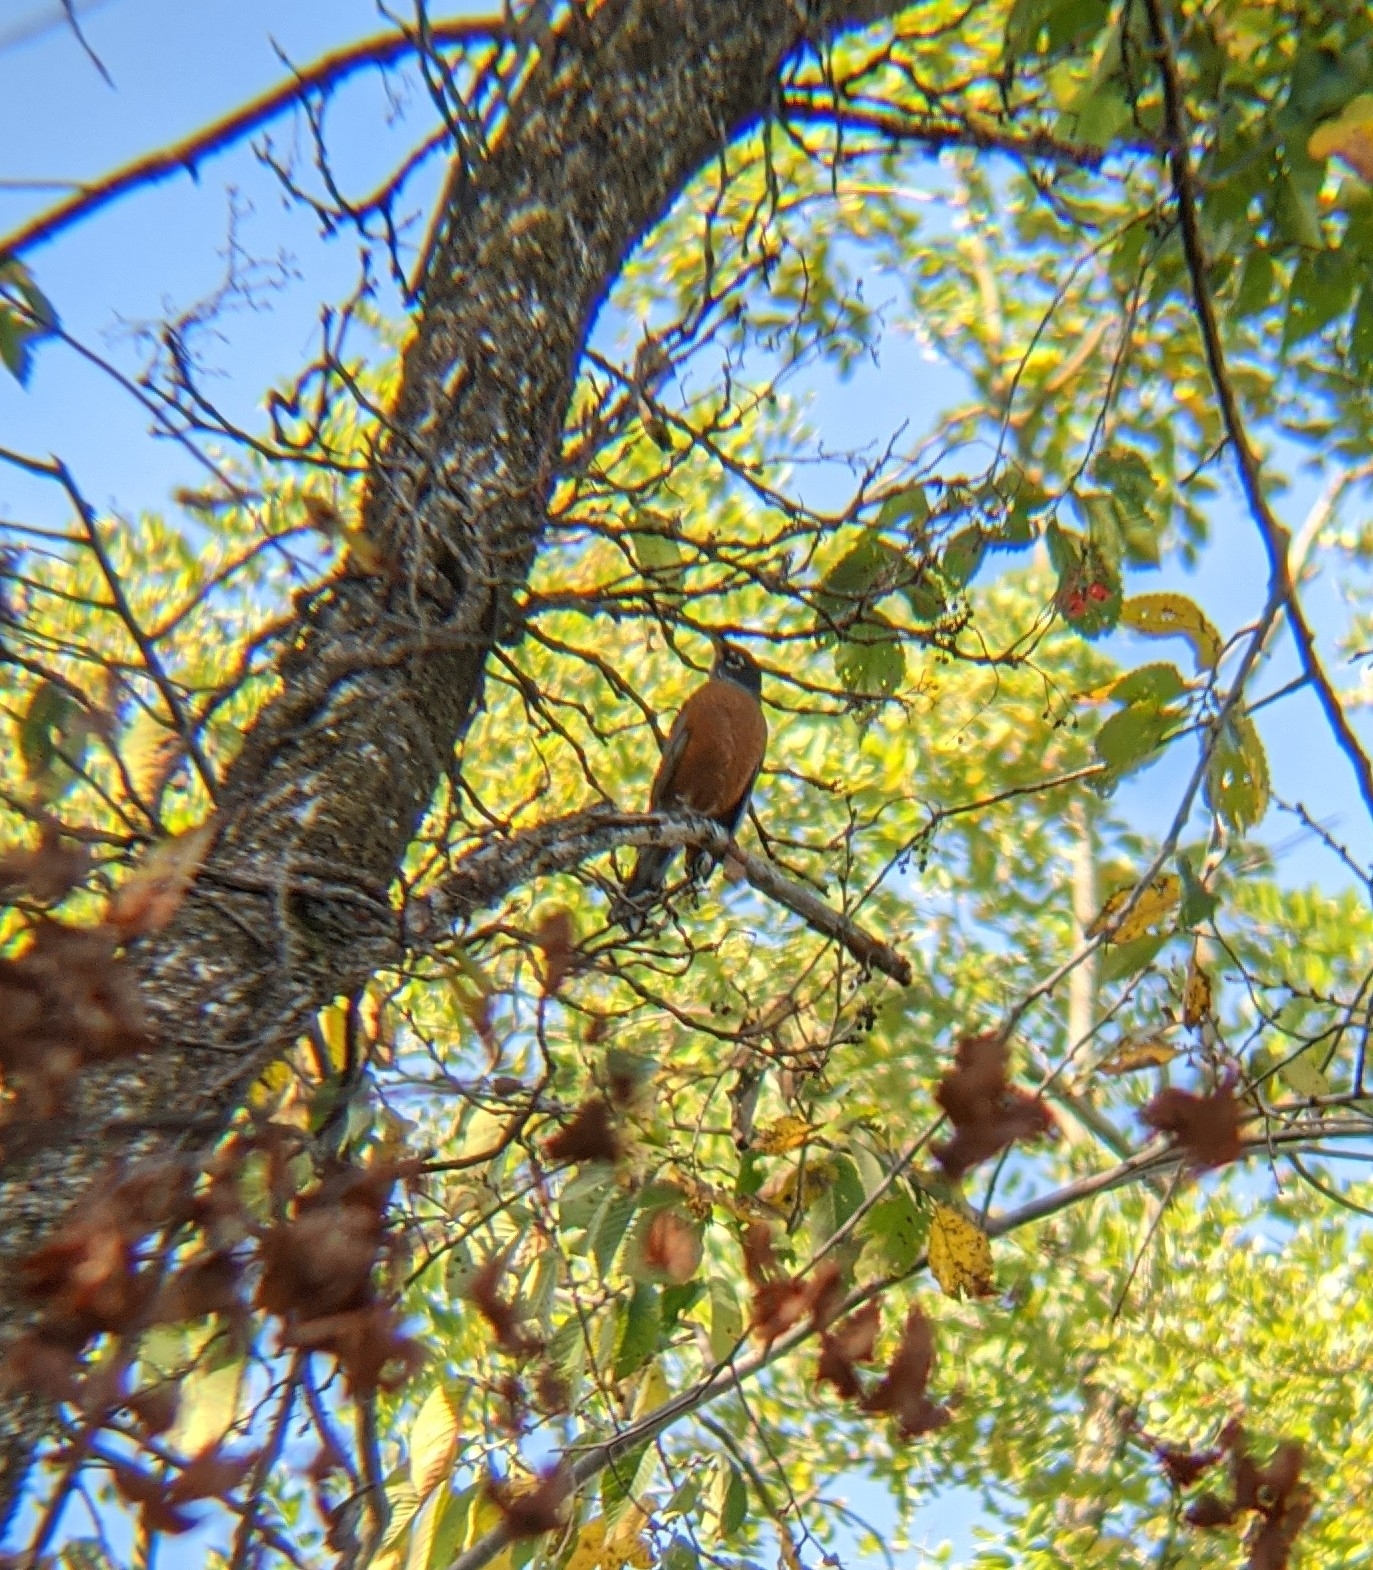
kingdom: Animalia
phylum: Chordata
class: Aves
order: Passeriformes
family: Turdidae
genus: Turdus
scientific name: Turdus migratorius
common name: American robin
